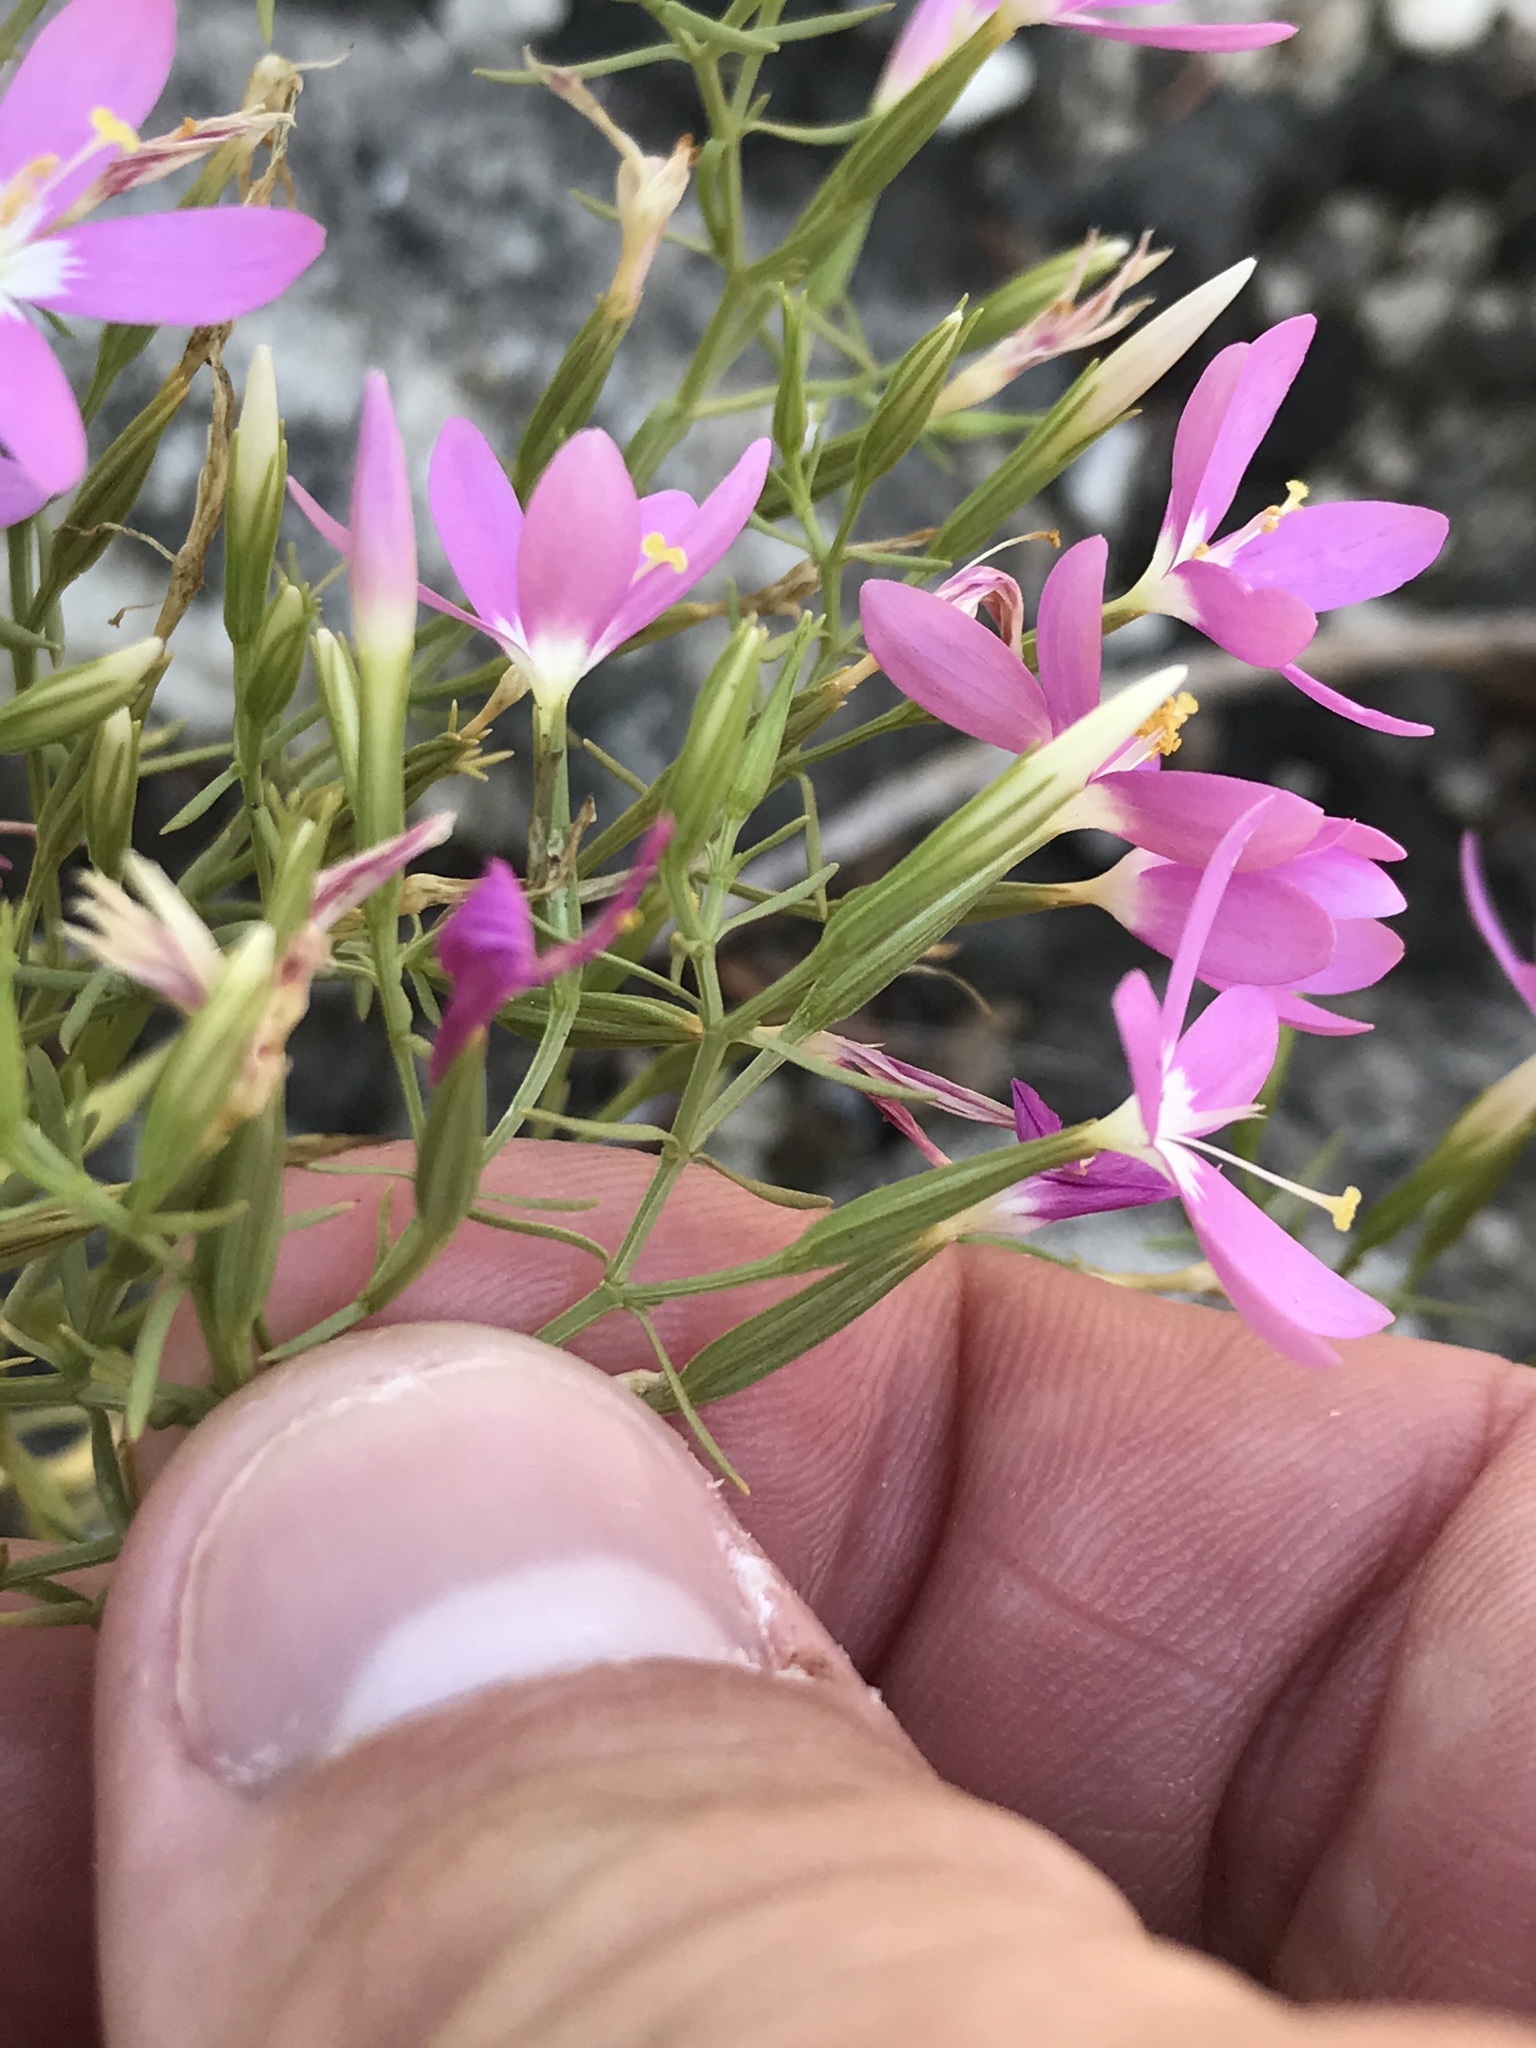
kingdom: Plantae
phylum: Tracheophyta
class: Magnoliopsida
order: Gentianales
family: Gentianaceae
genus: Zeltnera
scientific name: Zeltnera beyrichii
